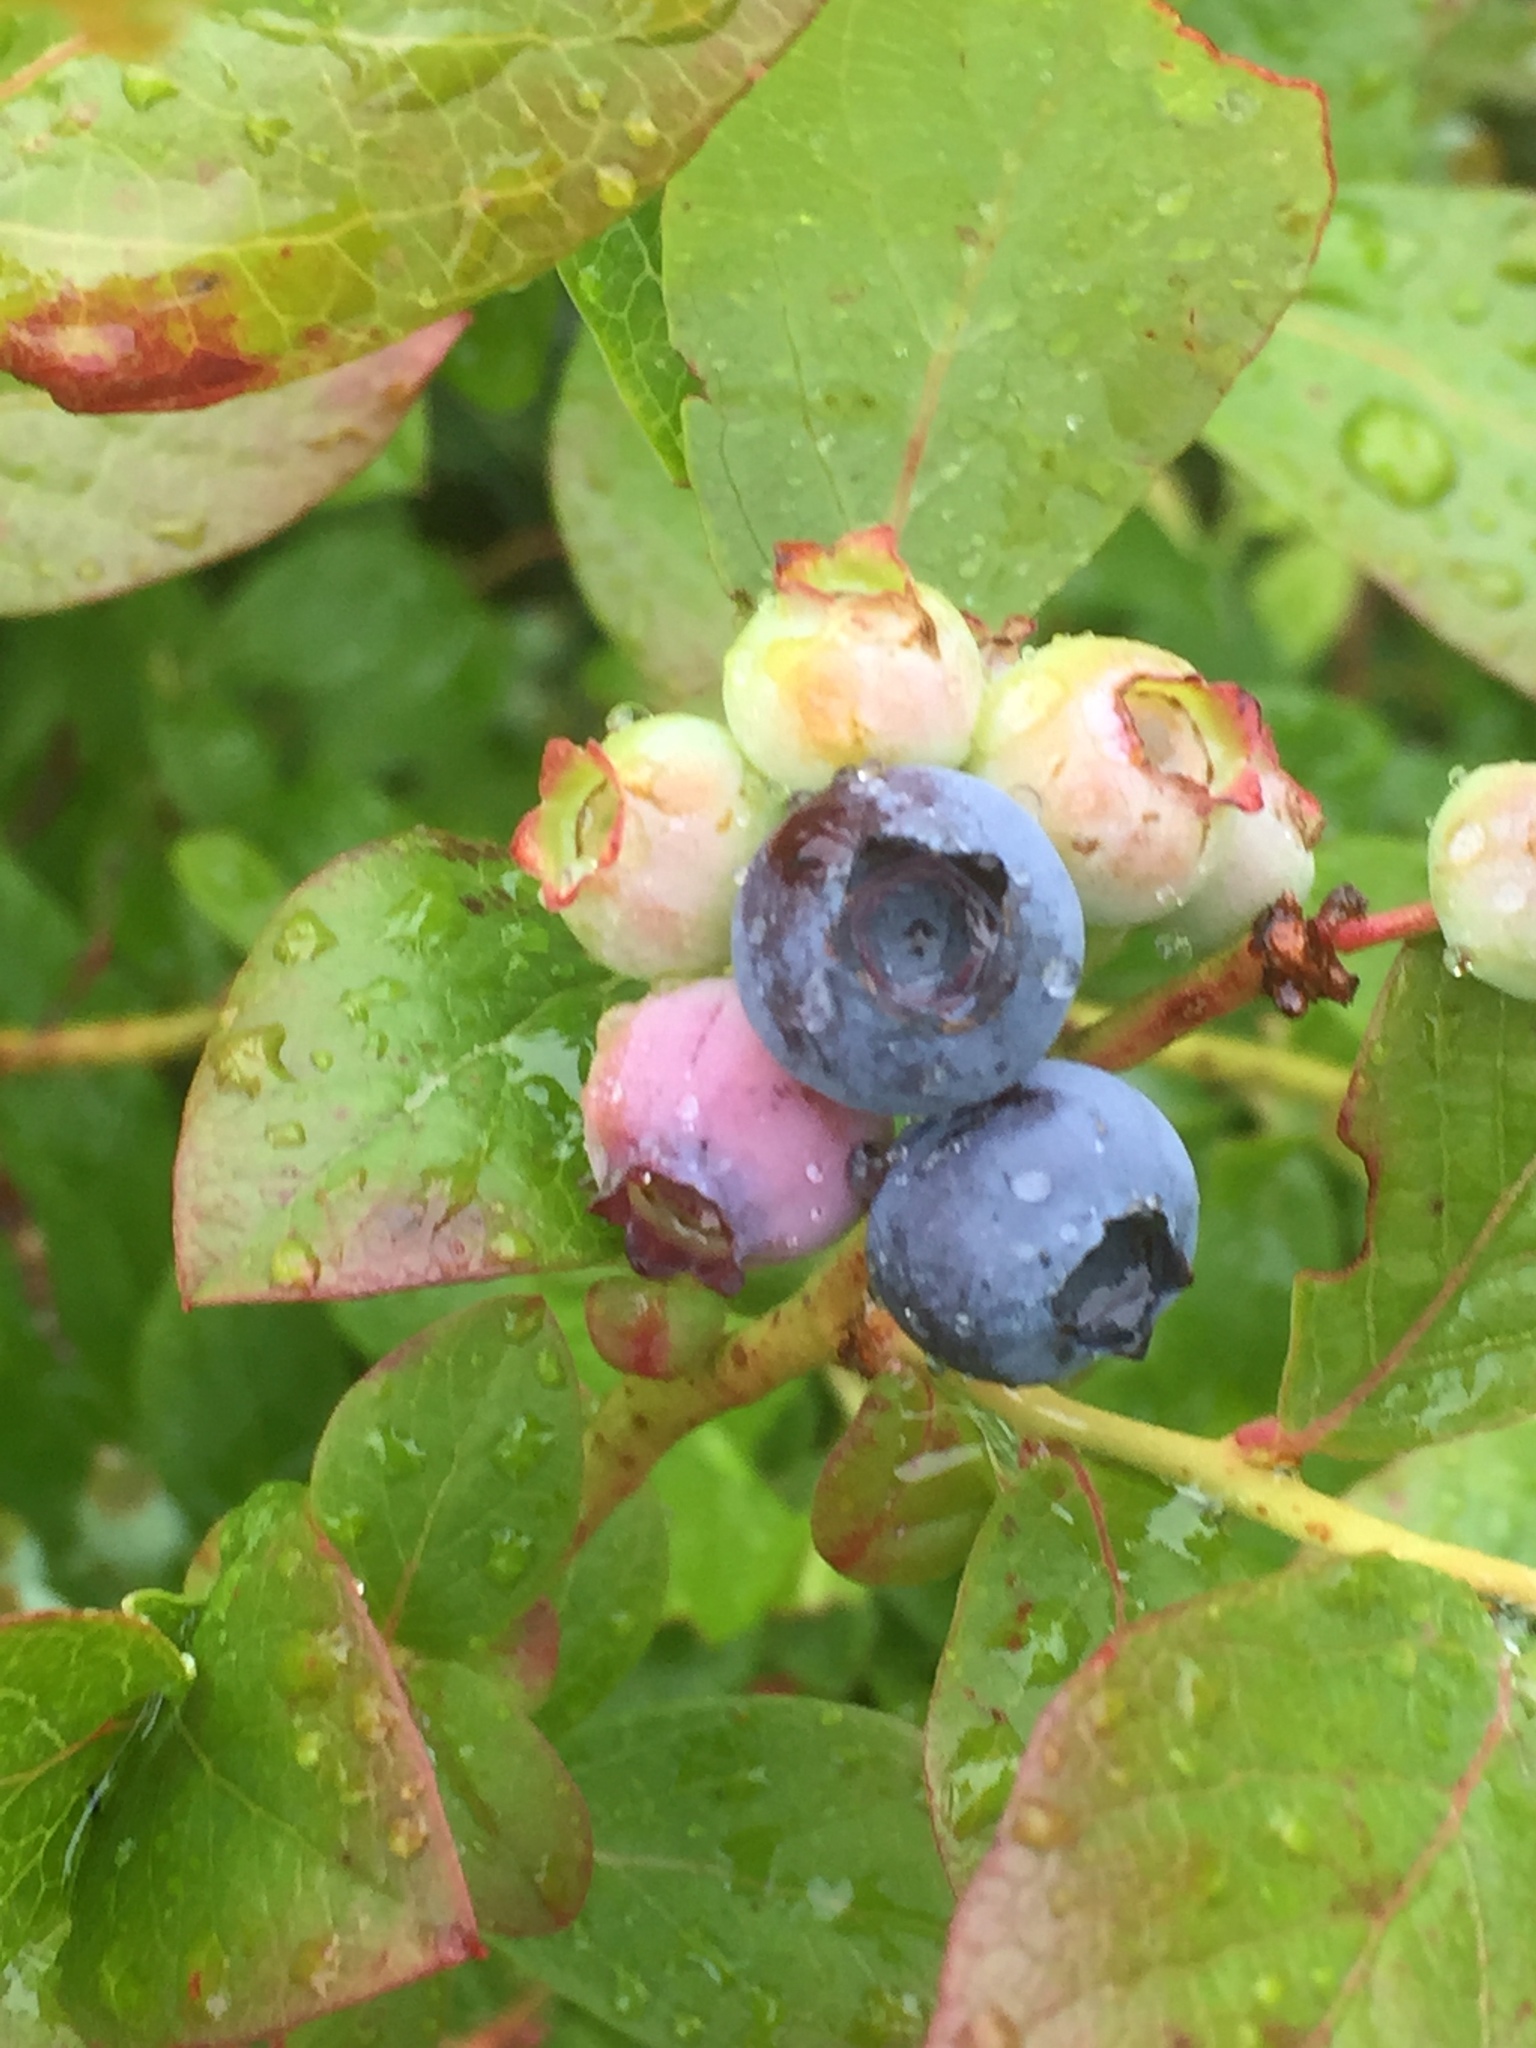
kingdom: Plantae
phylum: Tracheophyta
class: Magnoliopsida
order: Ericales
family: Ericaceae
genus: Vaccinium
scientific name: Vaccinium corymbosum
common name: Blueberry
